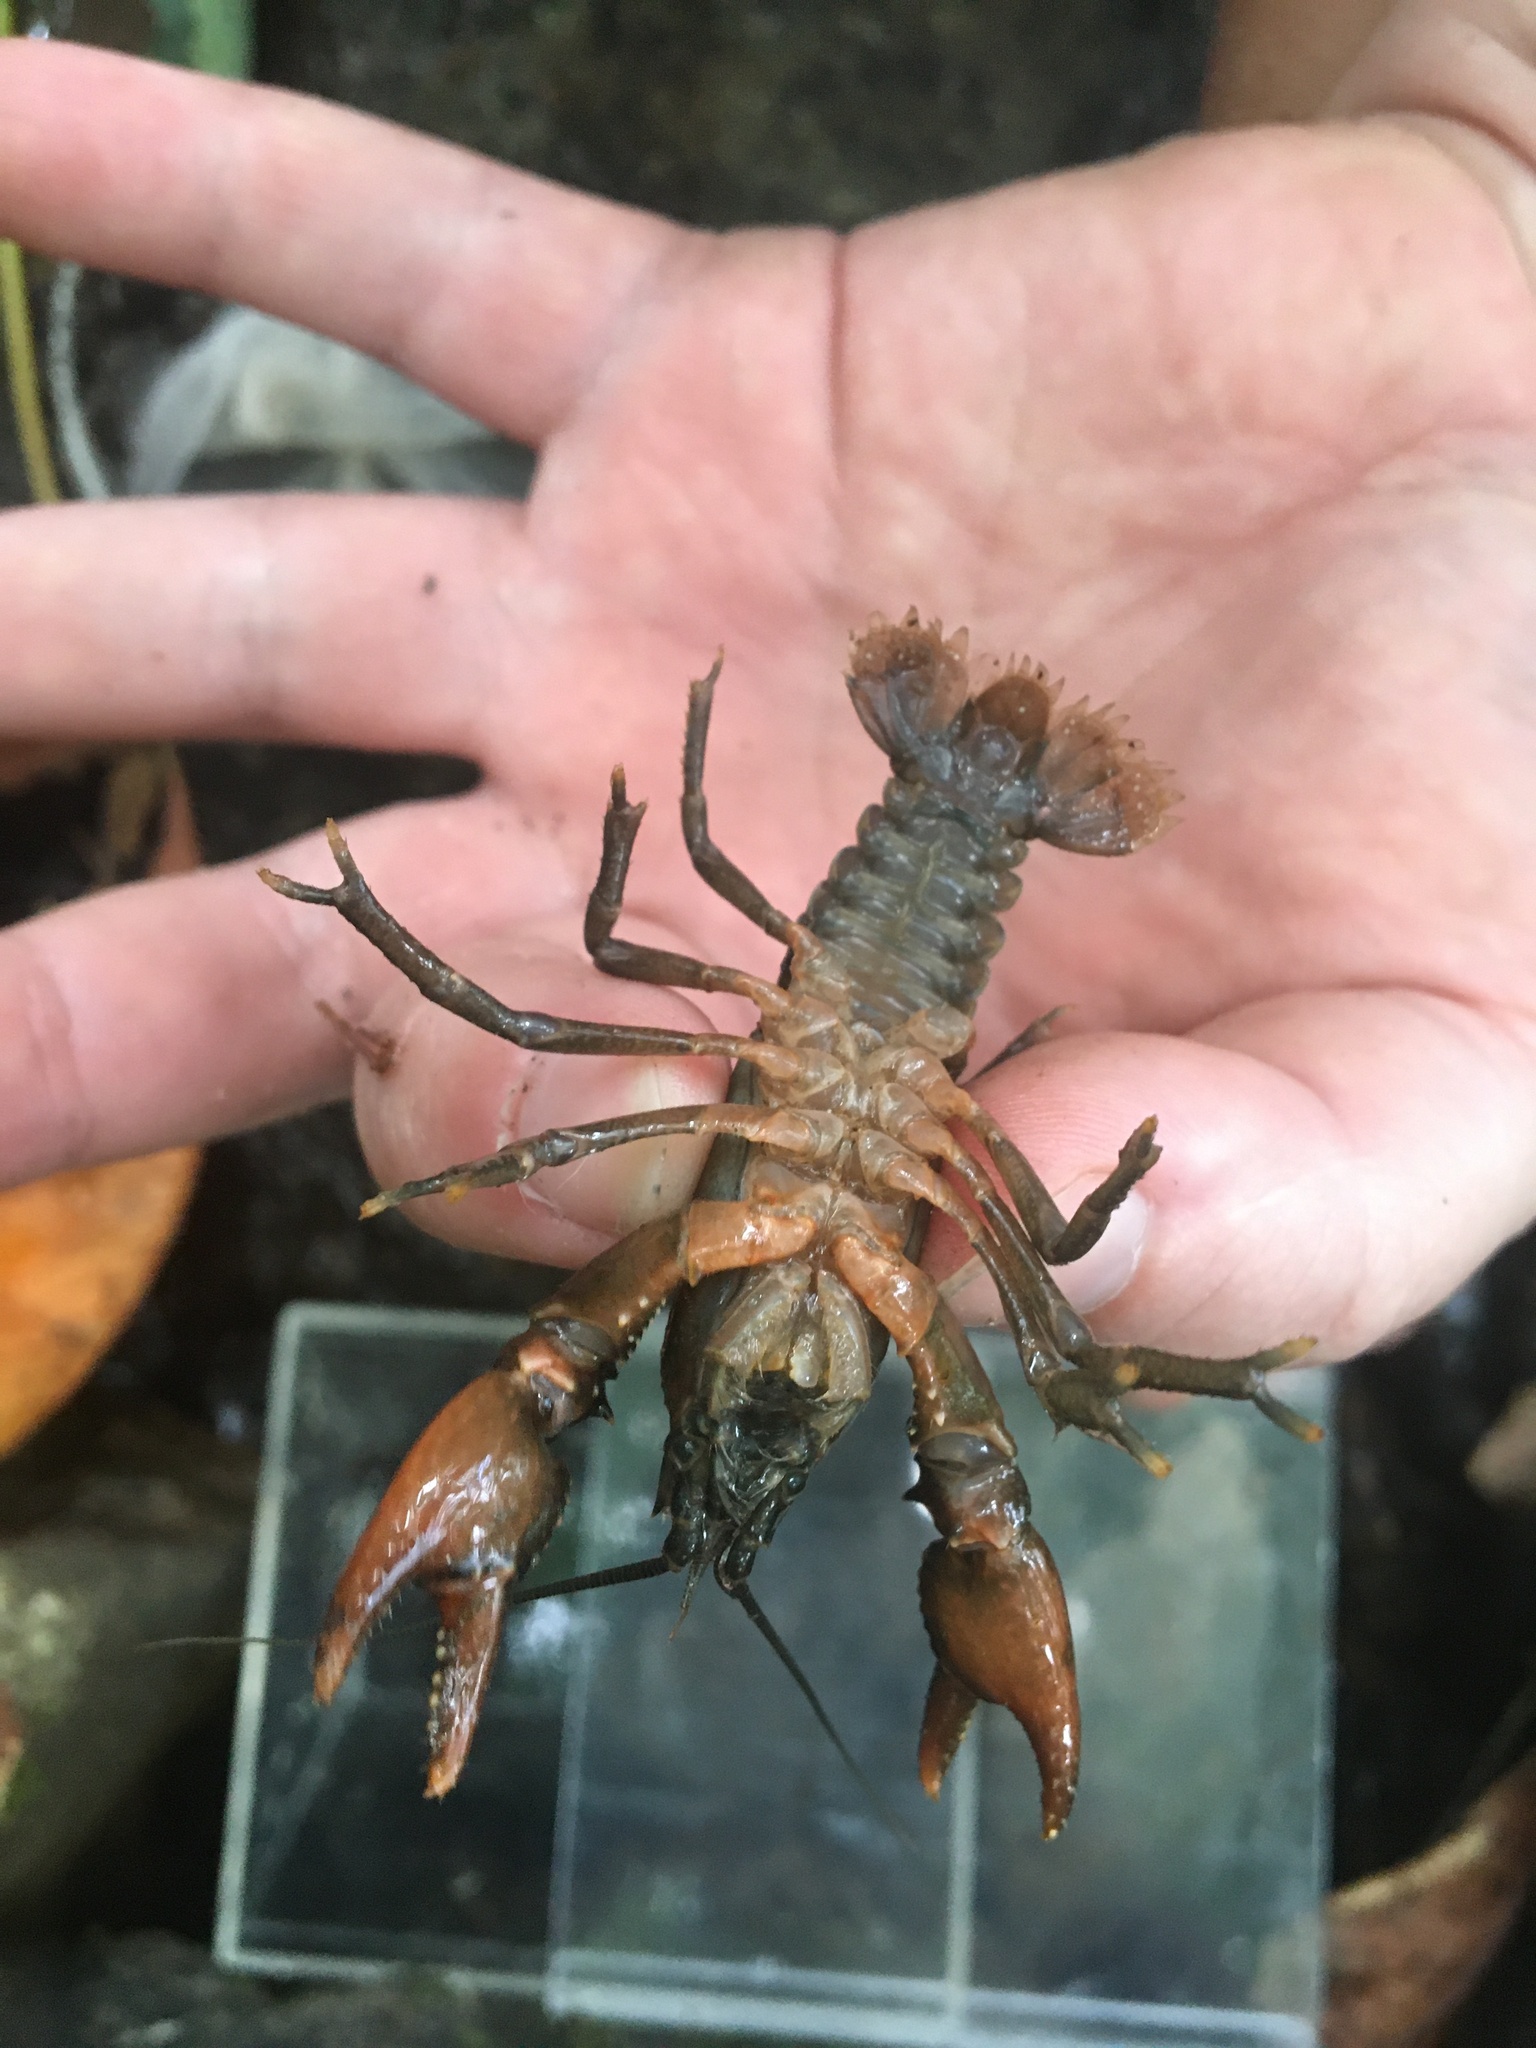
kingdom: Animalia
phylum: Arthropoda
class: Malacostraca
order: Decapoda
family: Cambaridae
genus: Cambarus
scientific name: Cambarus conasaugaensis
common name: Mountain crayfish
